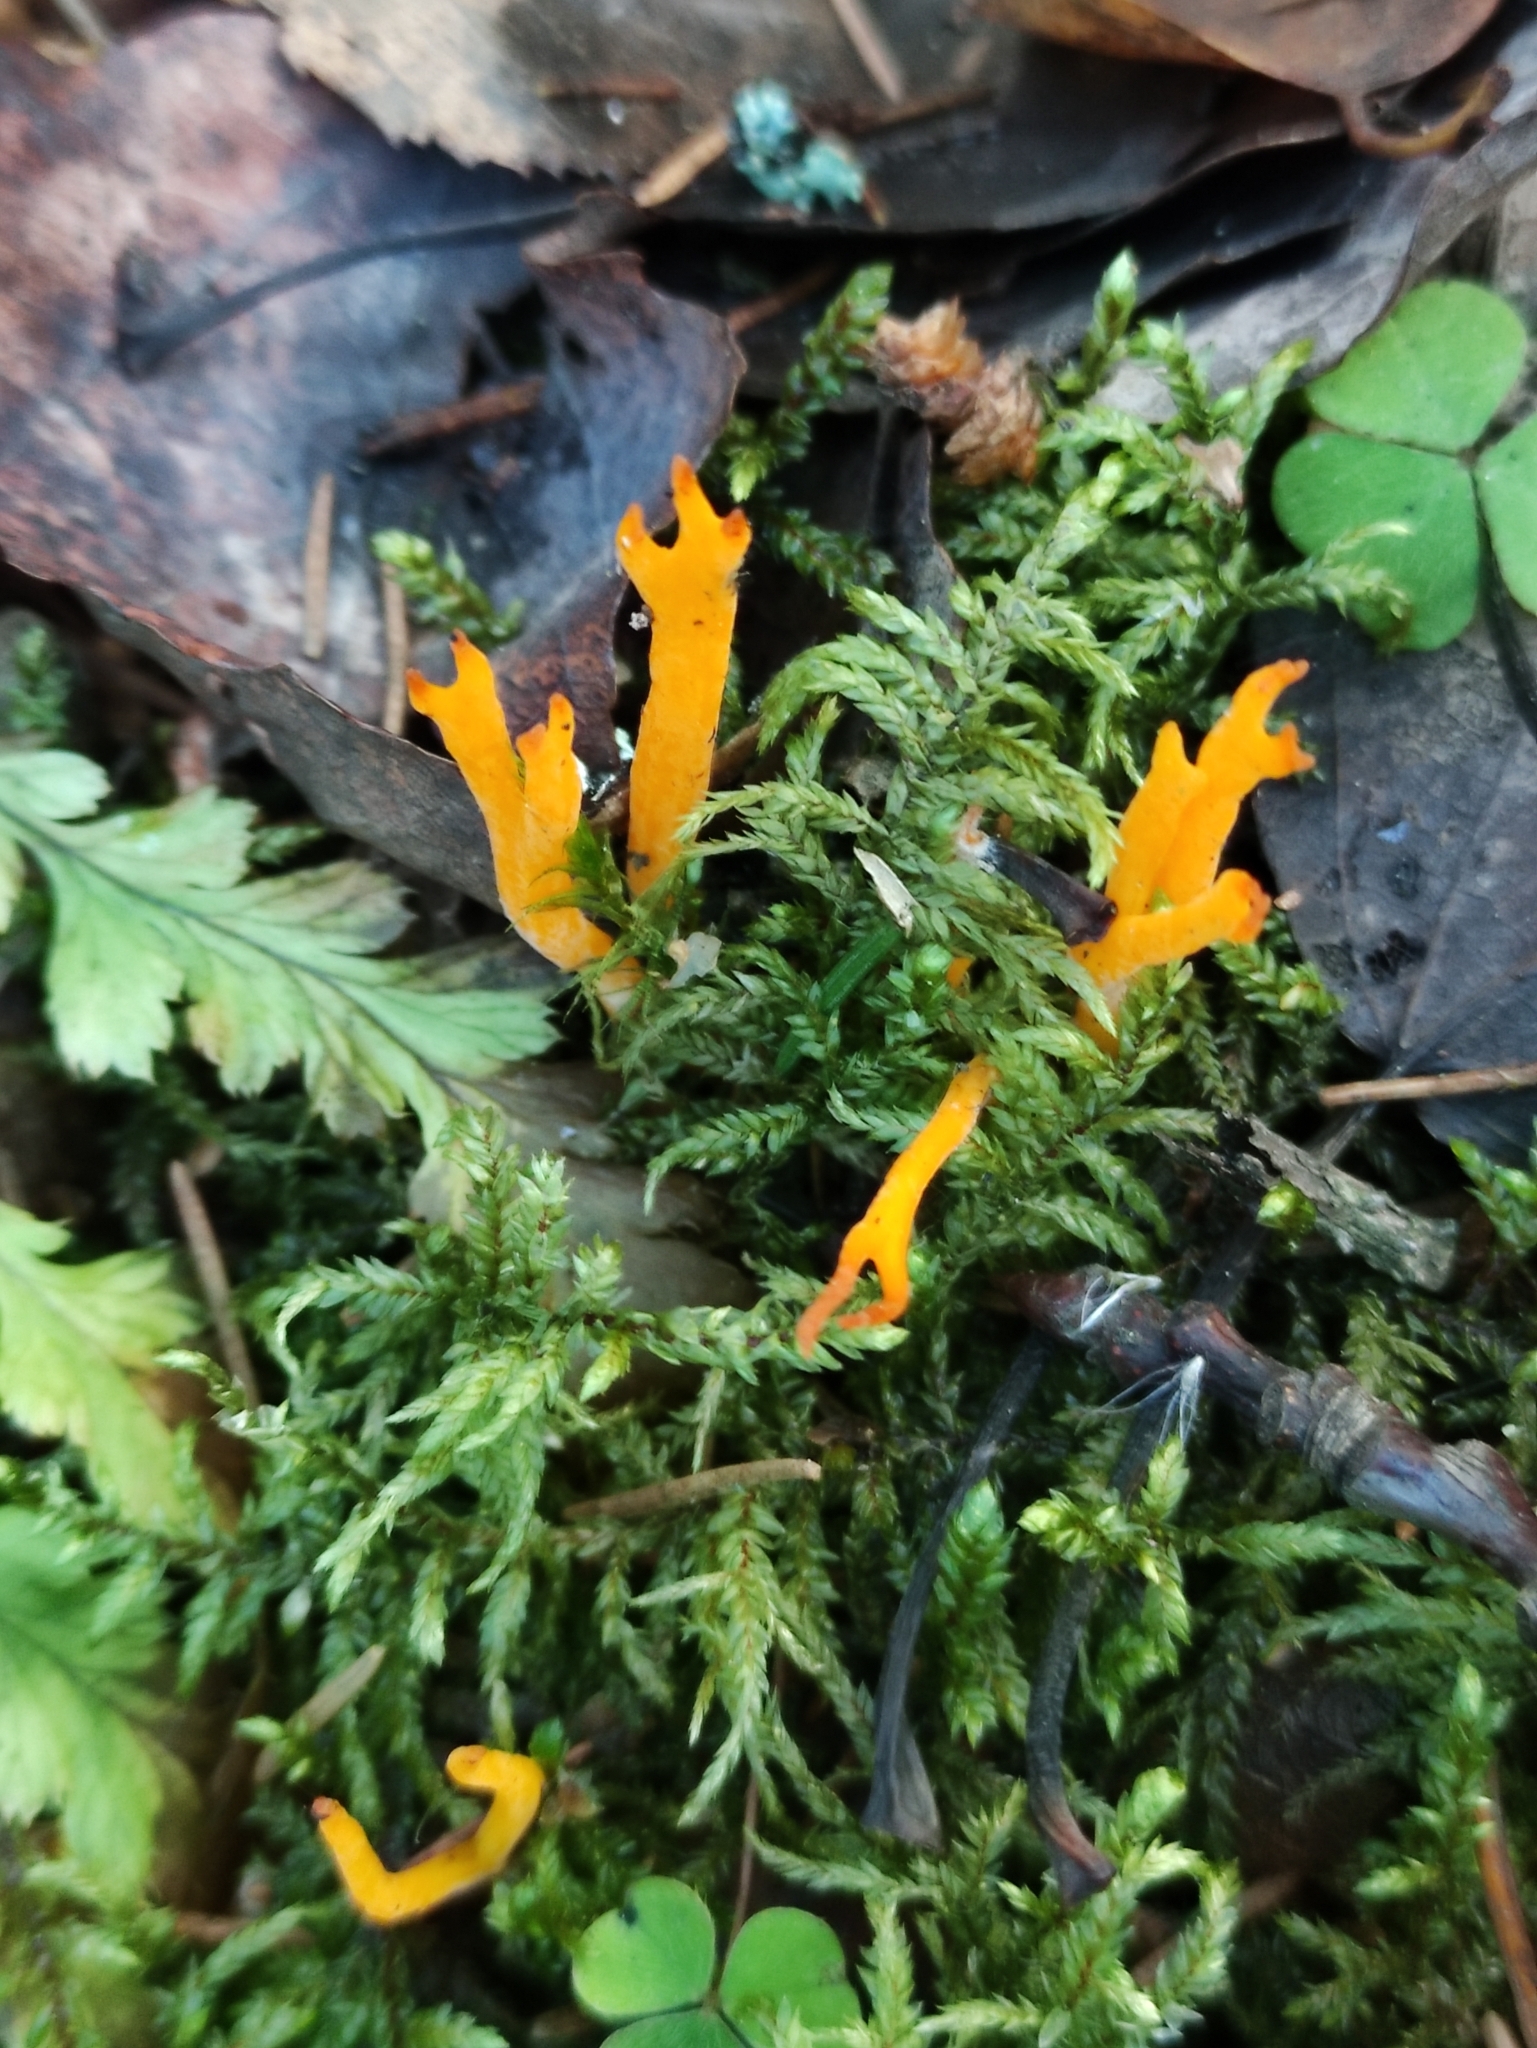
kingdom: Fungi
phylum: Basidiomycota
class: Dacrymycetes
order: Dacrymycetales
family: Dacrymycetaceae
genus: Calocera
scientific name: Calocera viscosa
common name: Yellow stagshorn
